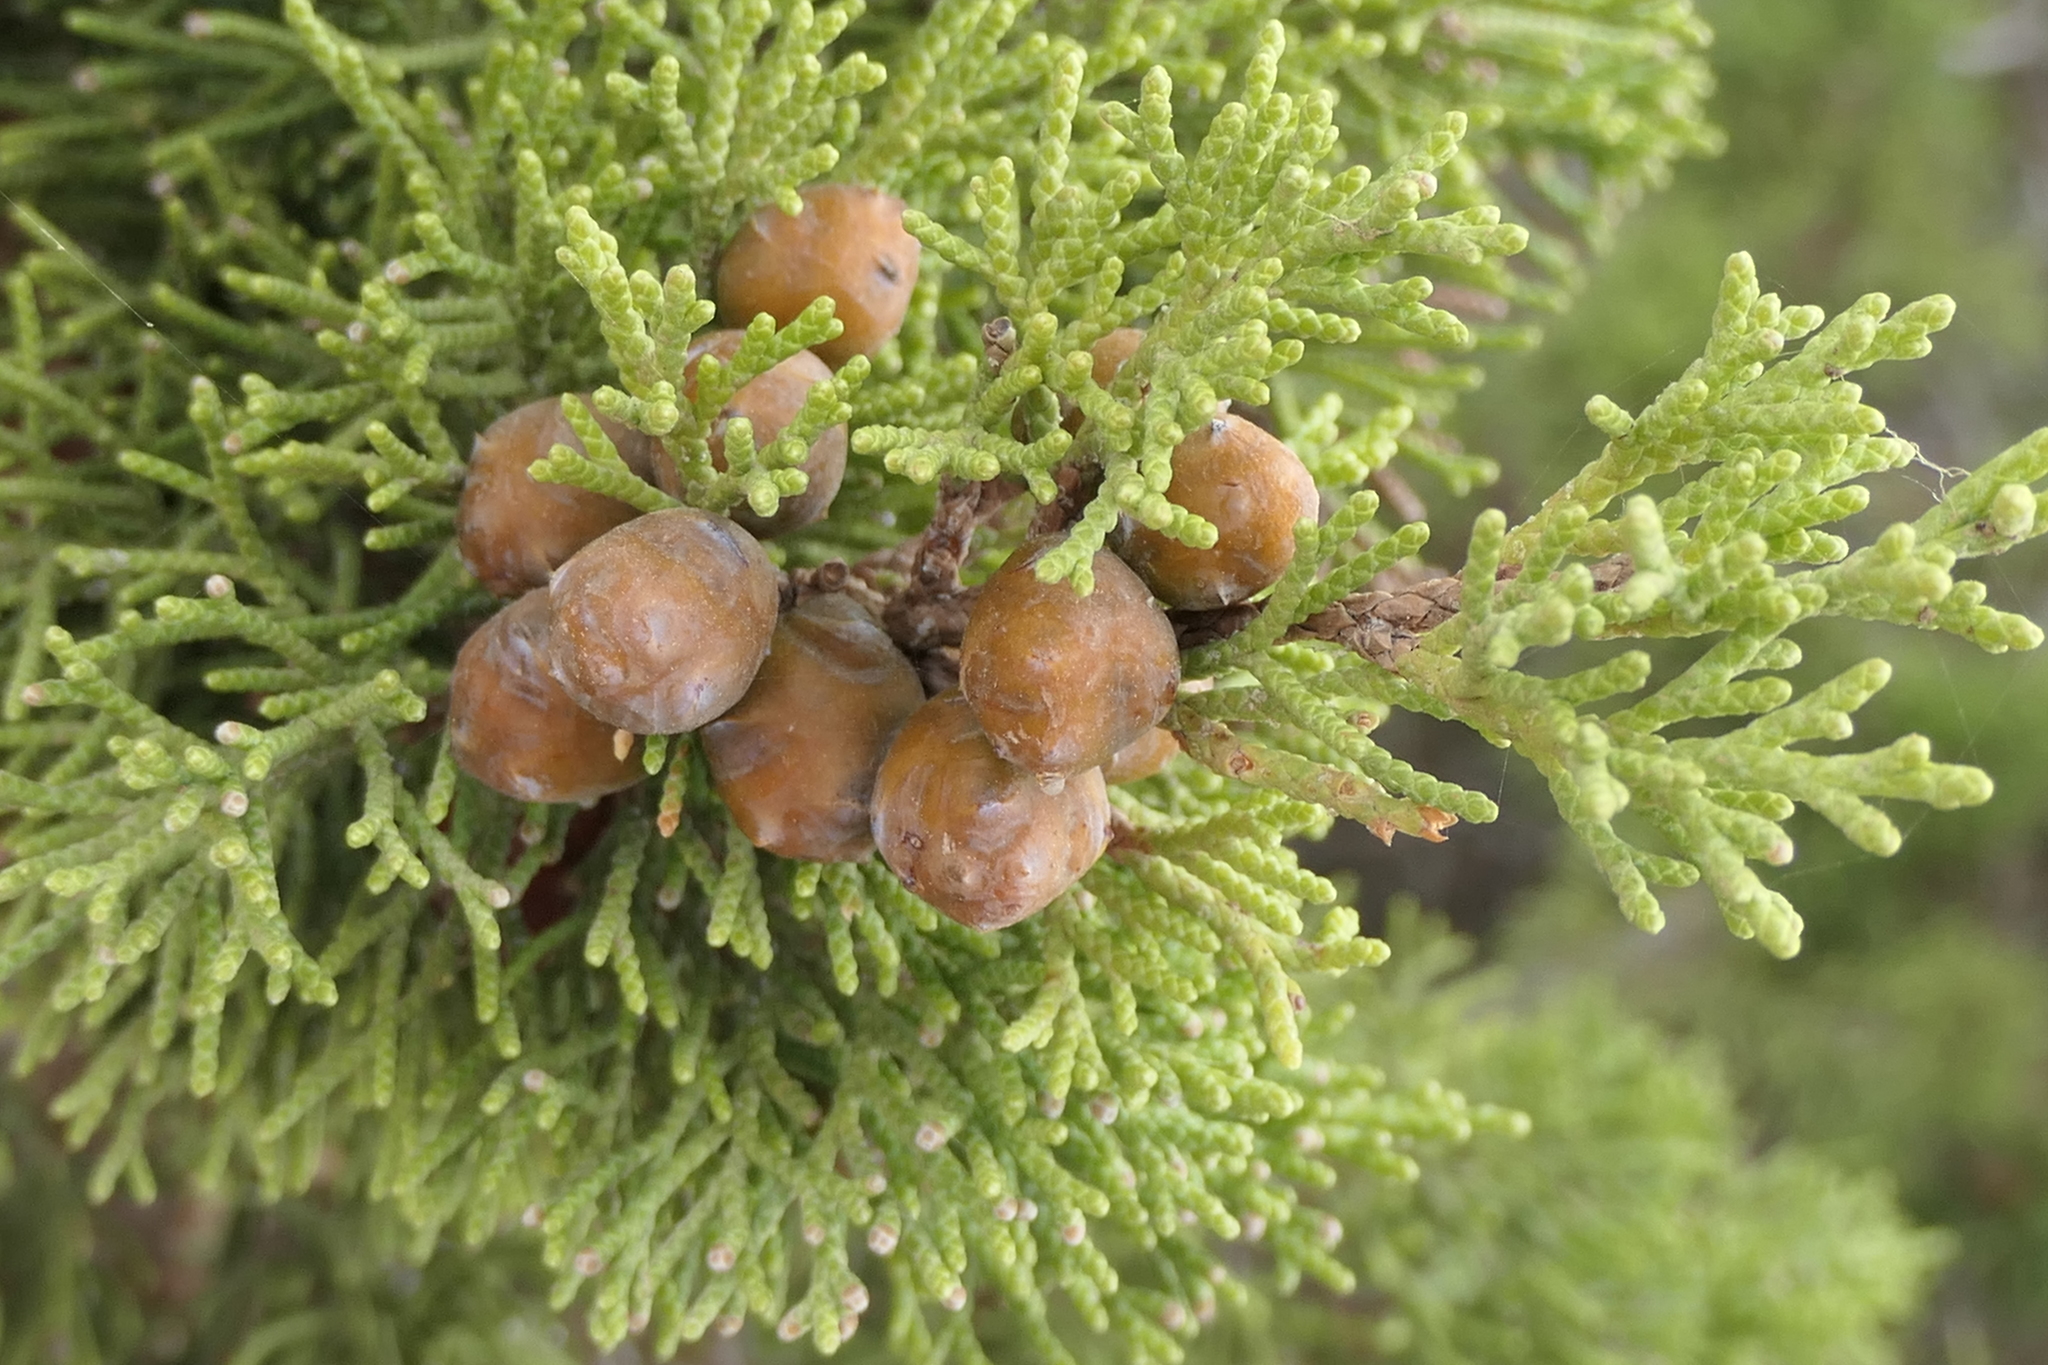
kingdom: Plantae
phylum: Tracheophyta
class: Pinopsida
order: Pinales
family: Cupressaceae
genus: Juniperus
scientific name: Juniperus phoenicea
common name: Phoenician juniper
